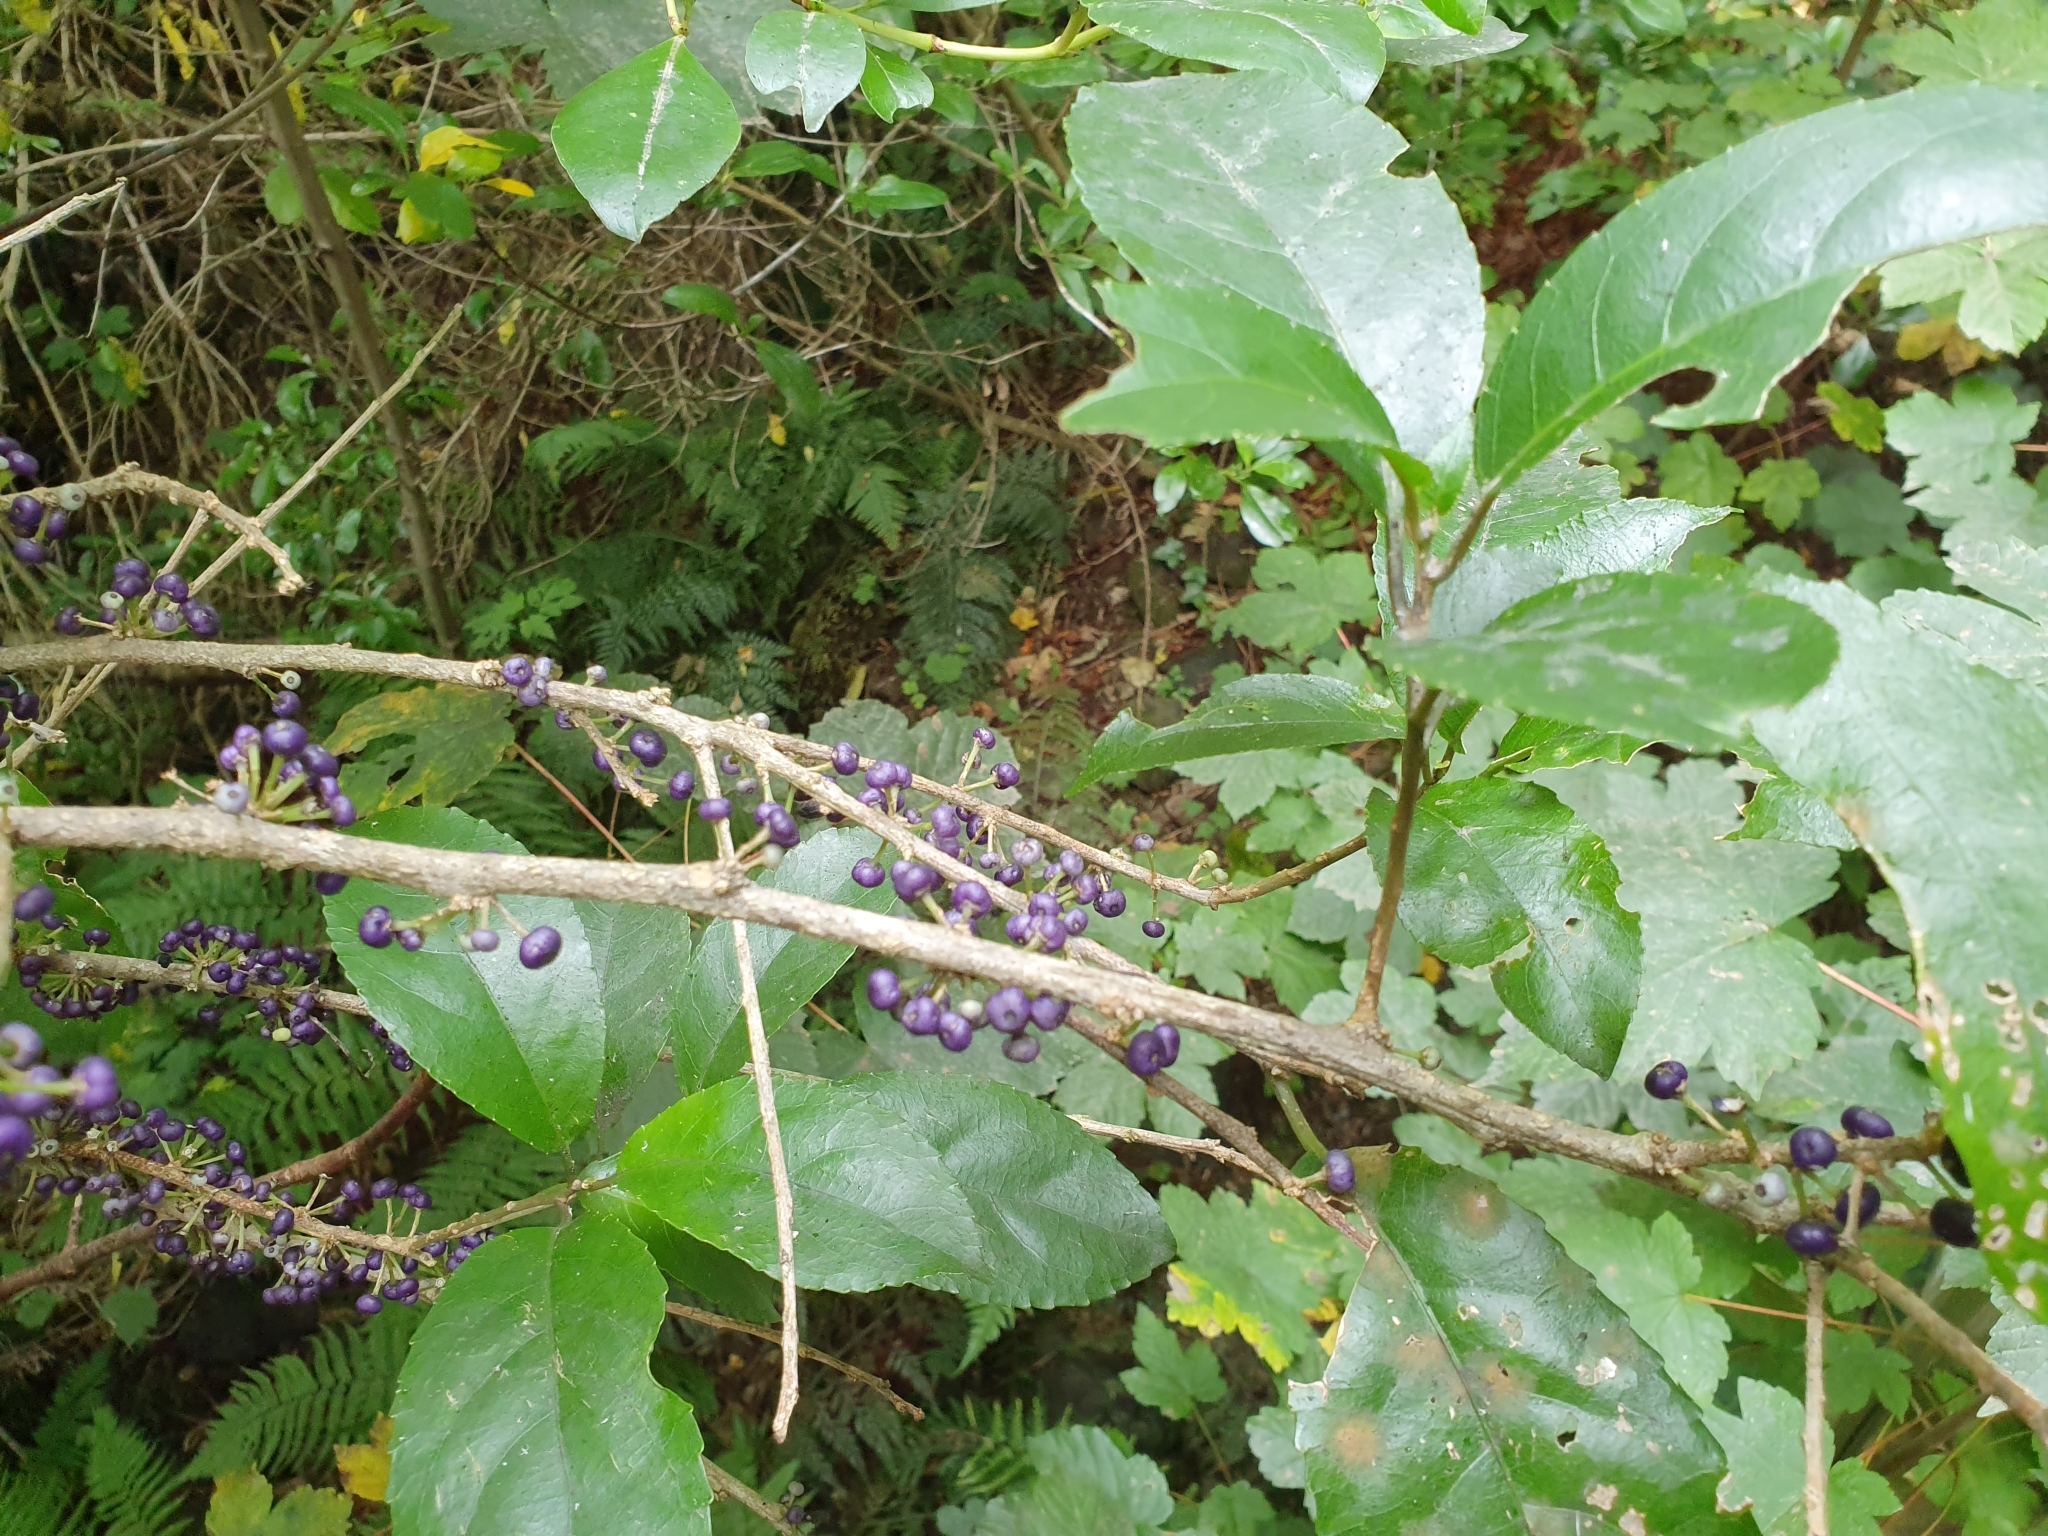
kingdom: Plantae
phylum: Tracheophyta
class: Magnoliopsida
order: Malpighiales
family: Violaceae
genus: Melicytus
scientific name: Melicytus ramiflorus
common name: Mahoe
